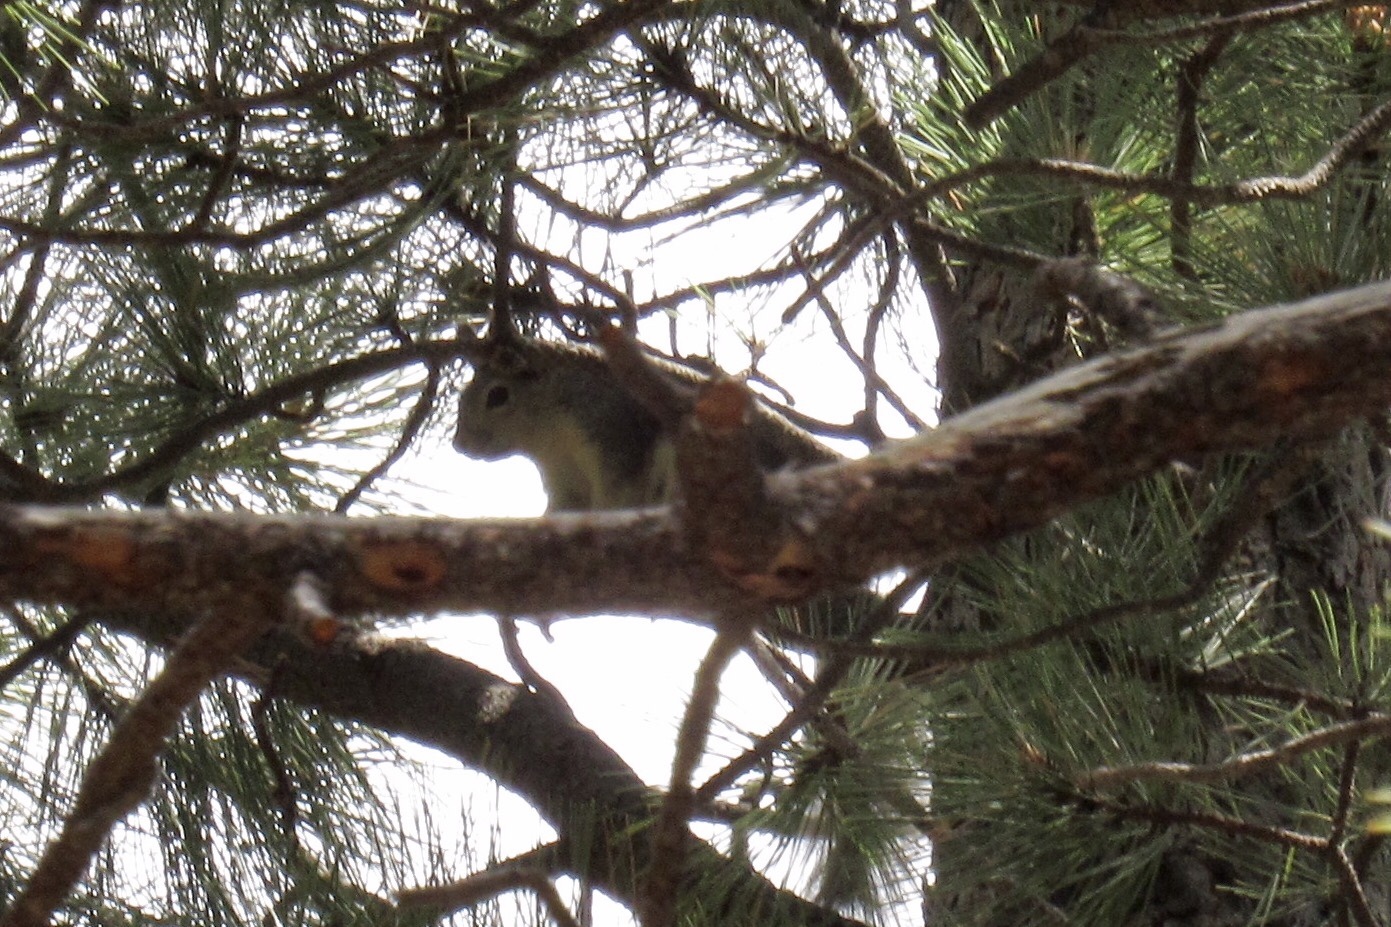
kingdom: Animalia
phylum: Chordata
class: Mammalia
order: Rodentia
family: Sciuridae
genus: Sciurus
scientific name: Sciurus aberti
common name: Abert's squirrel
